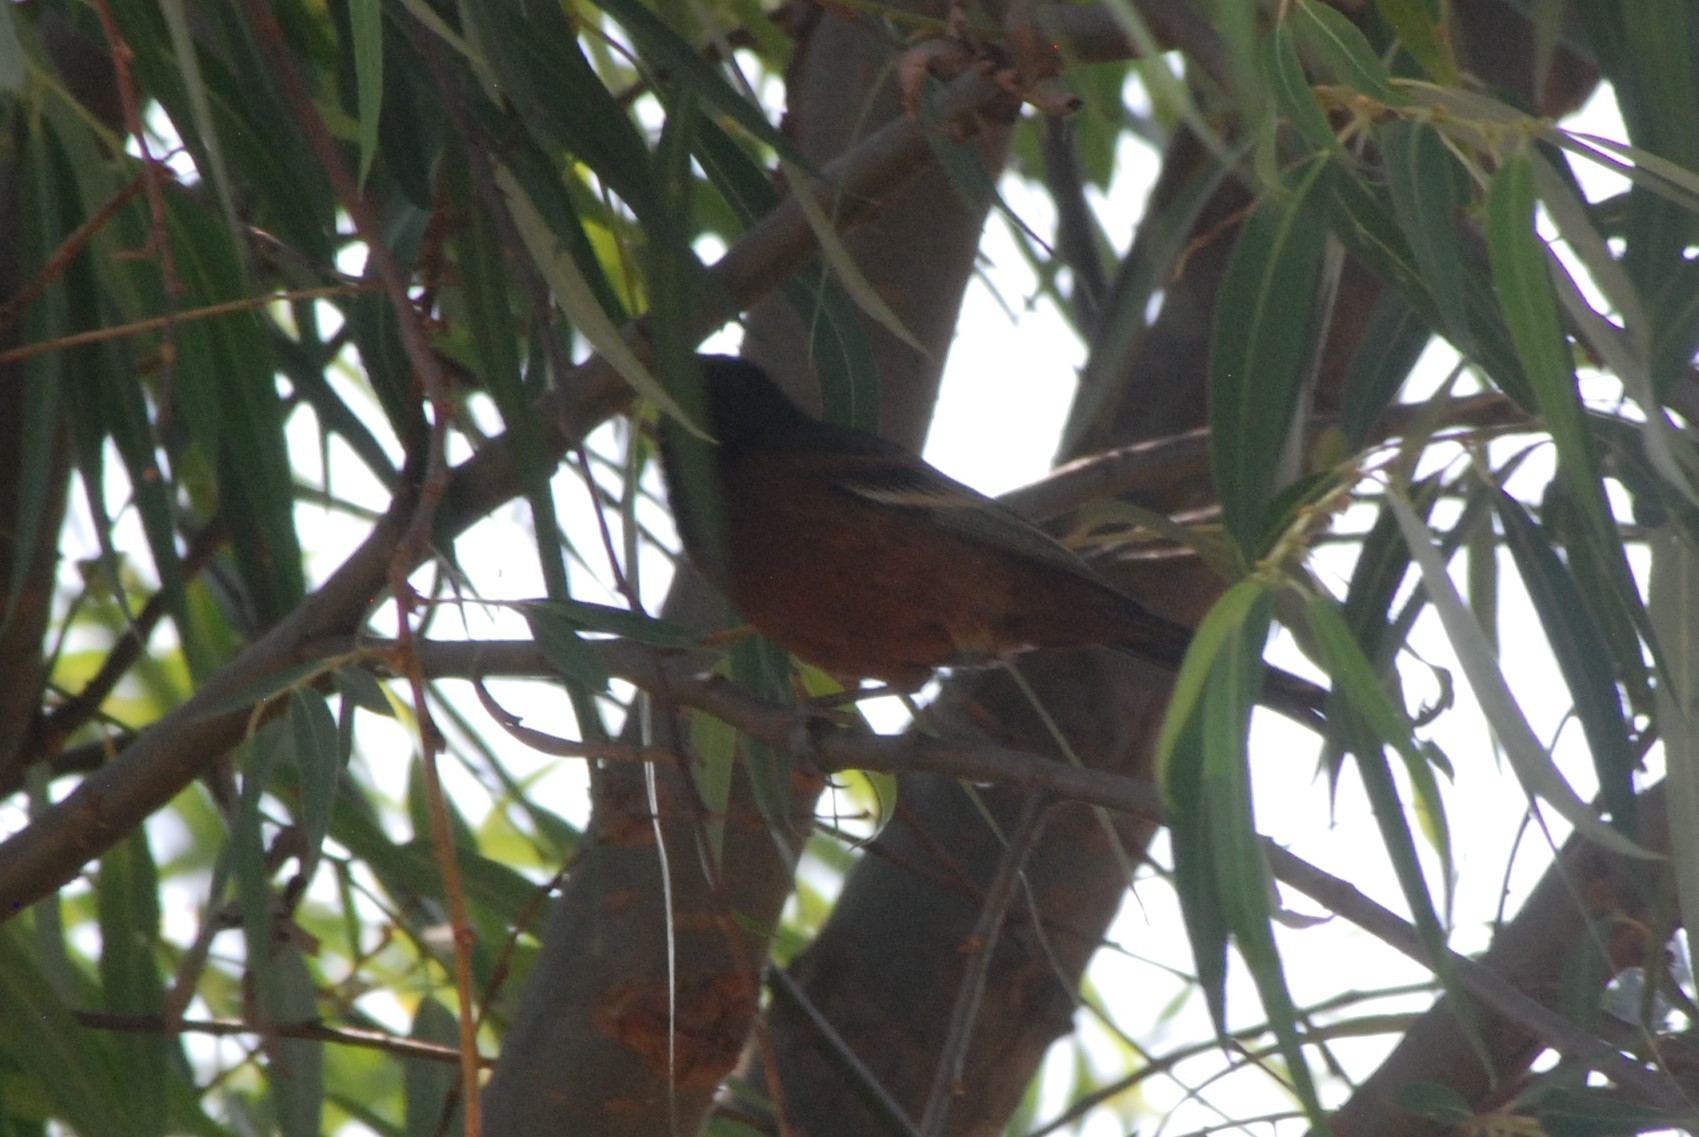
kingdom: Animalia
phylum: Chordata
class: Aves
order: Passeriformes
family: Icteridae
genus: Icterus
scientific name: Icterus spurius
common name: Orchard oriole
